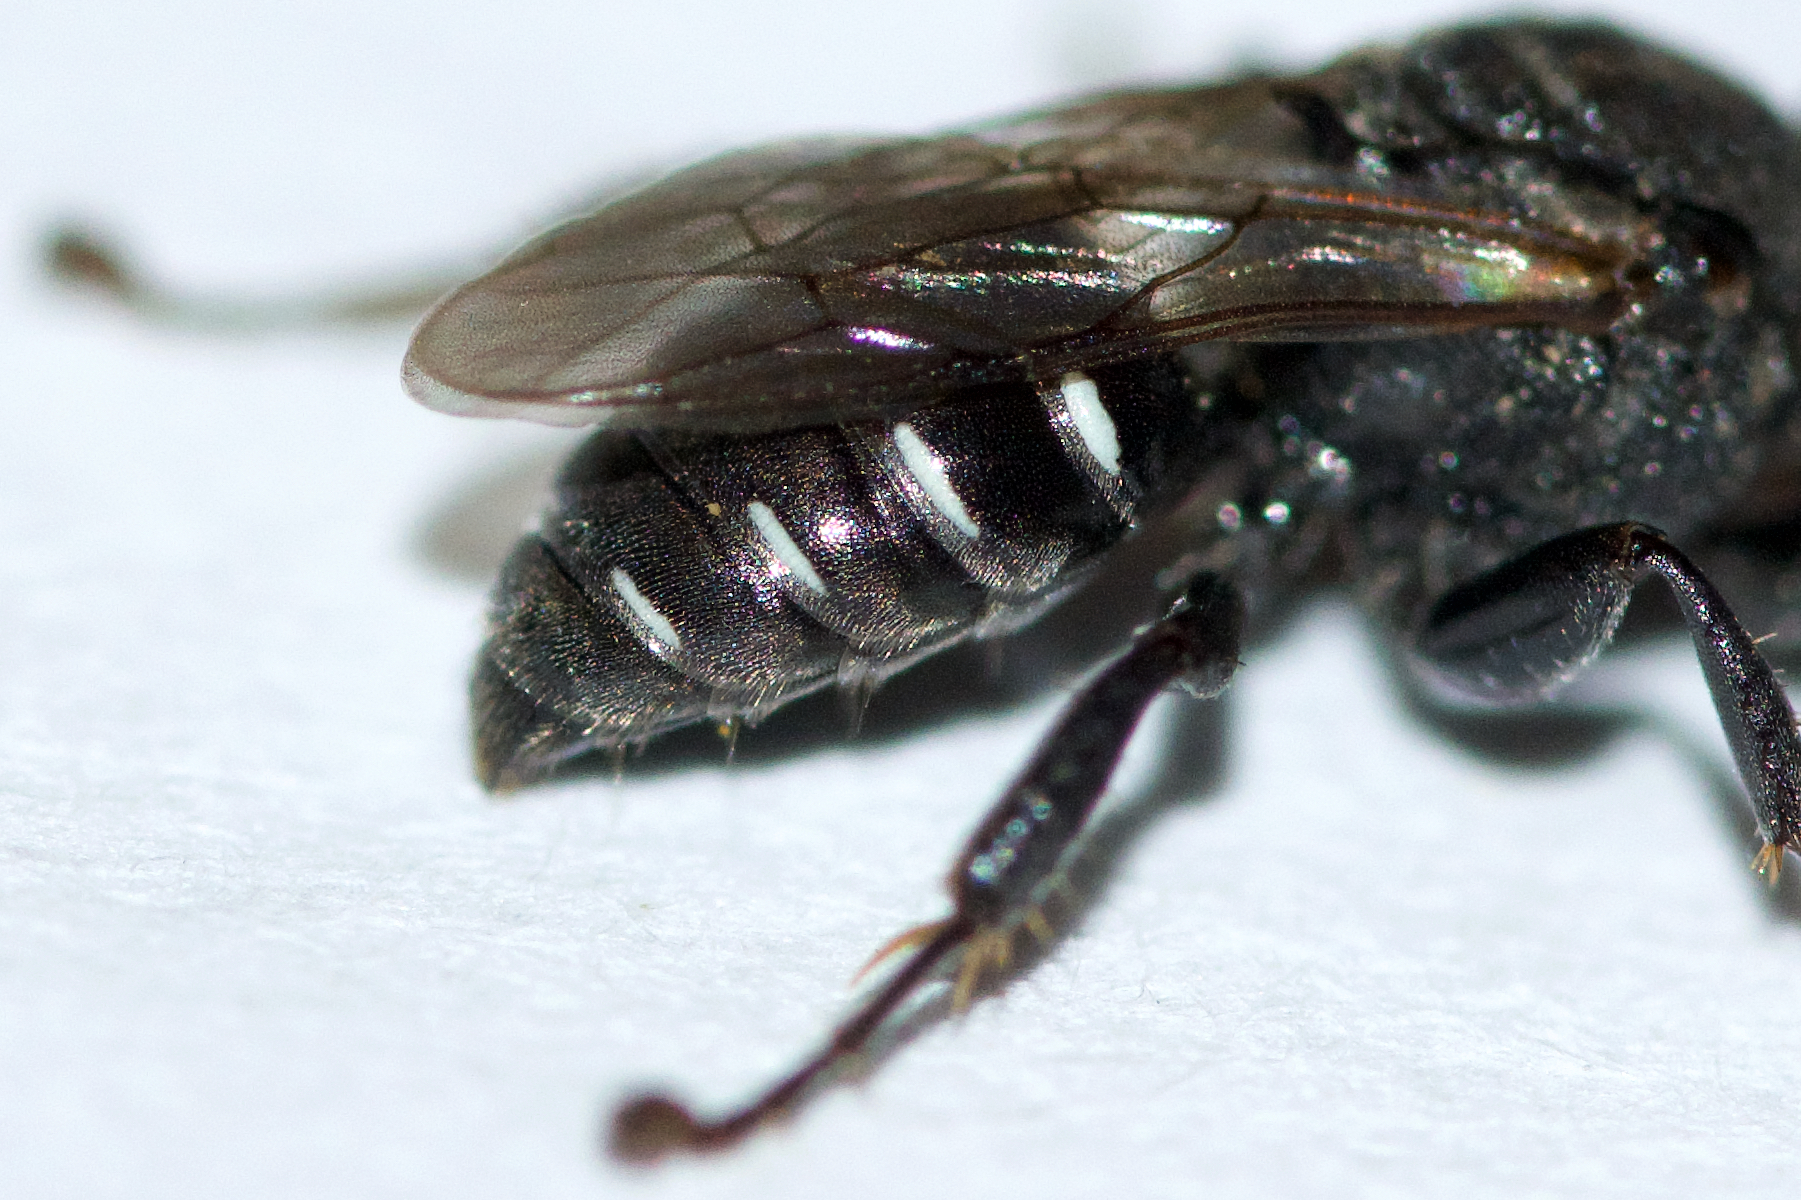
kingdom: Animalia
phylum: Arthropoda
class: Insecta
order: Hymenoptera
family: Crabronidae
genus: Oxybelus
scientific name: Oxybelus uniglumis
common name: Common spiny digger wasp
